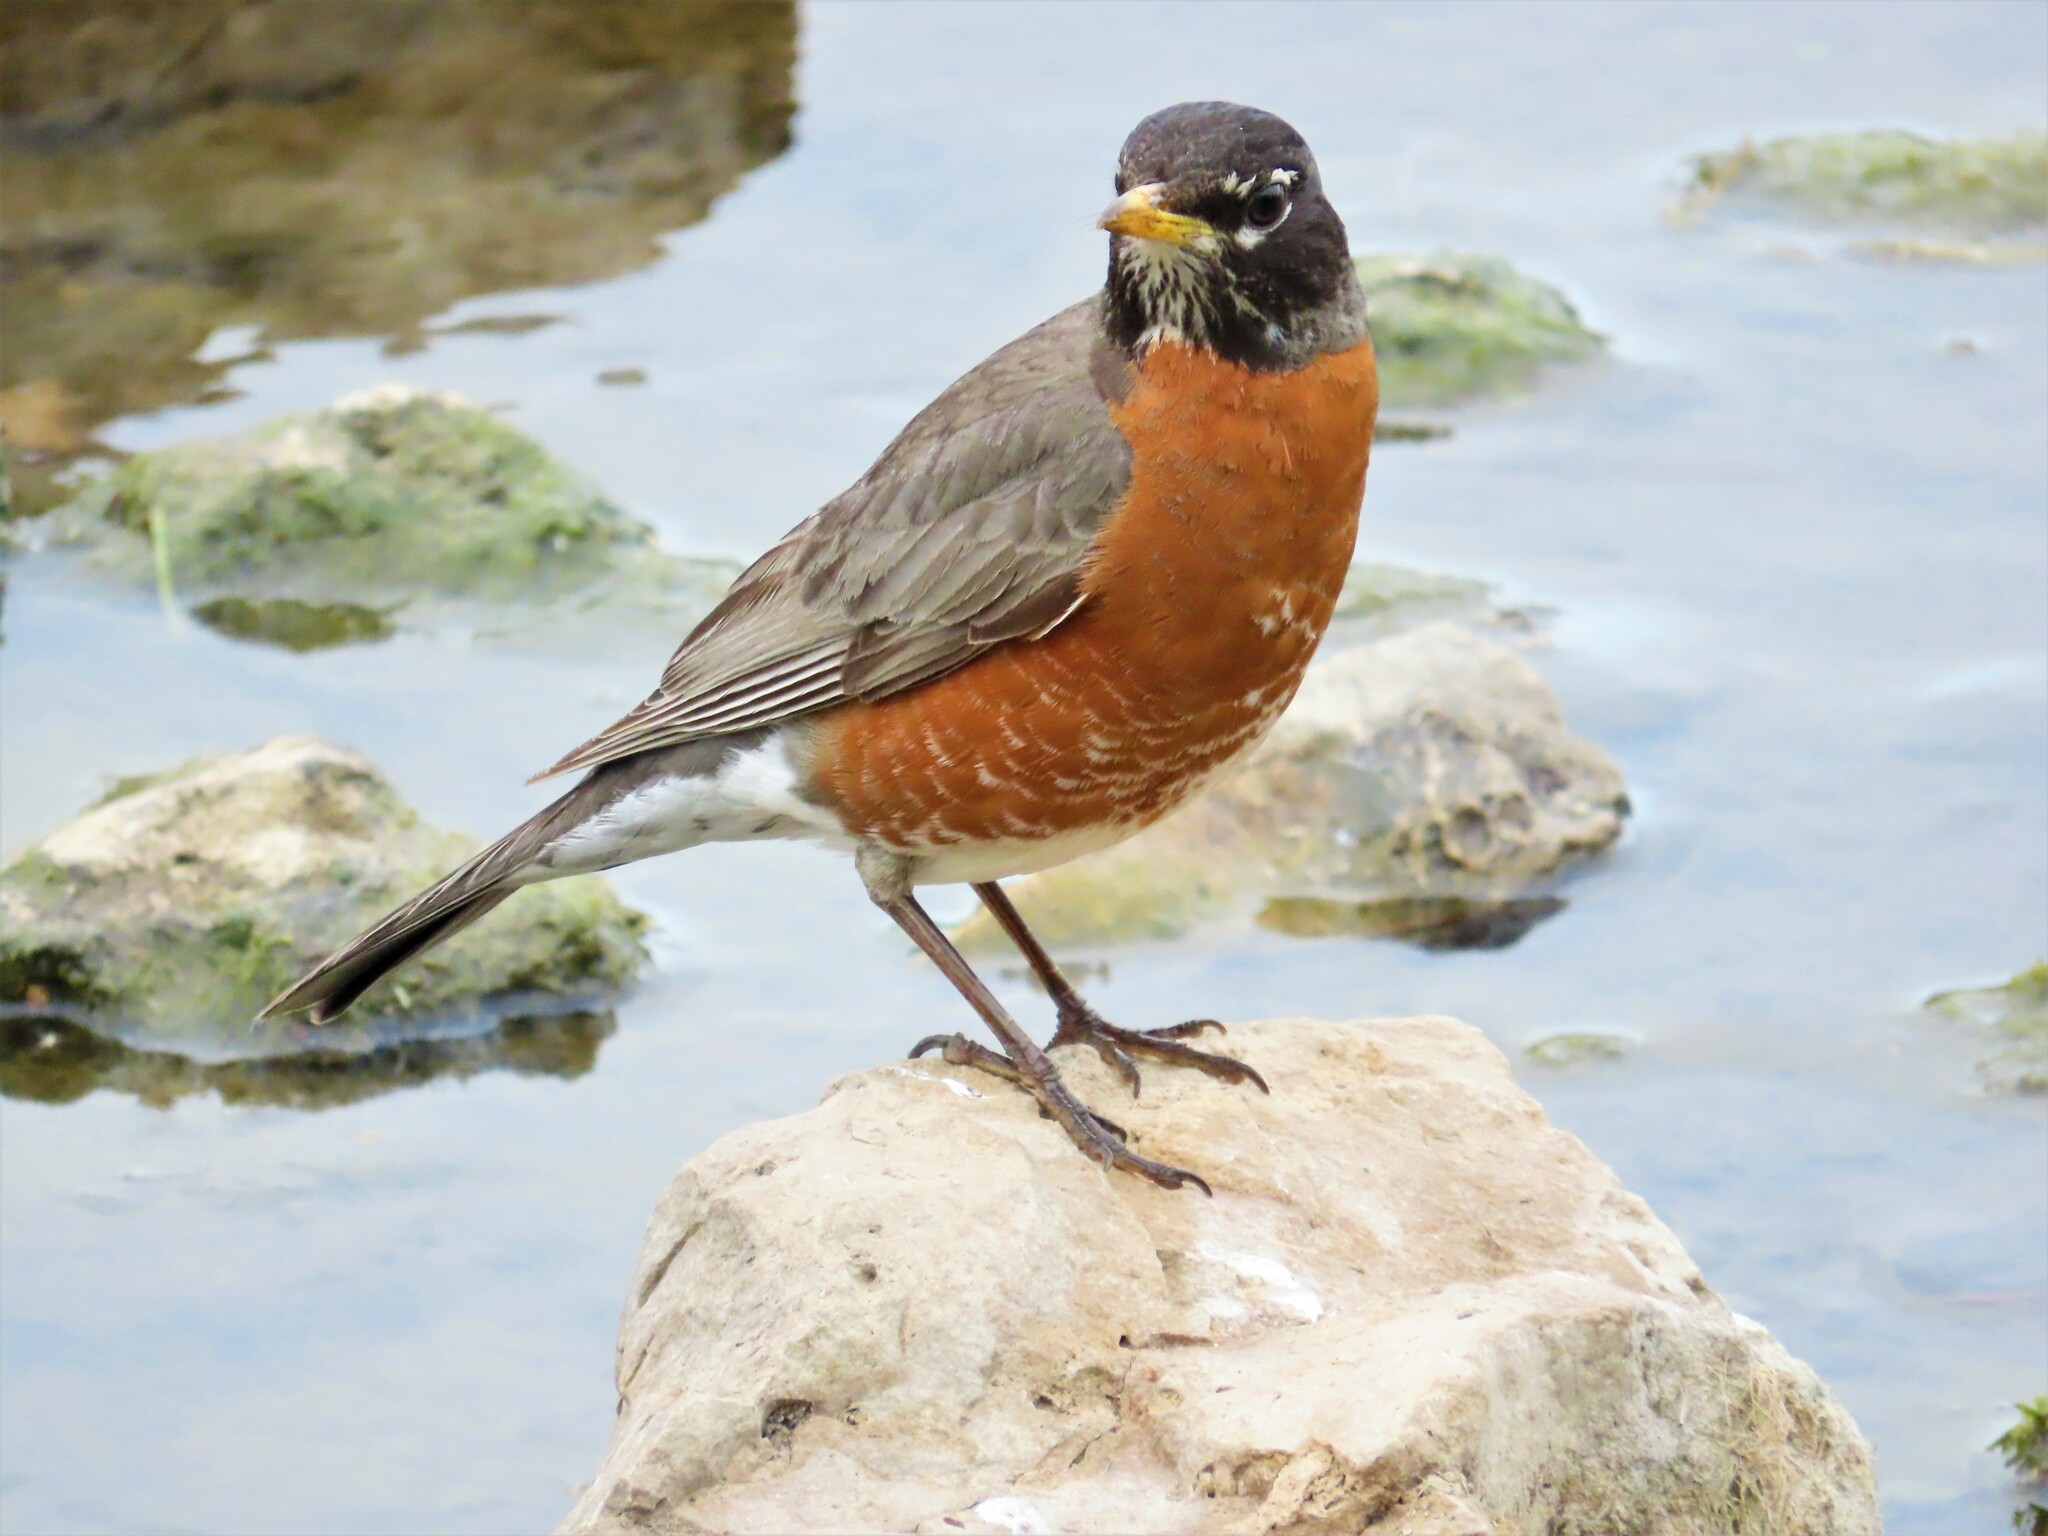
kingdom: Animalia
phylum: Chordata
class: Aves
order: Passeriformes
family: Turdidae
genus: Turdus
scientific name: Turdus migratorius
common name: American robin
